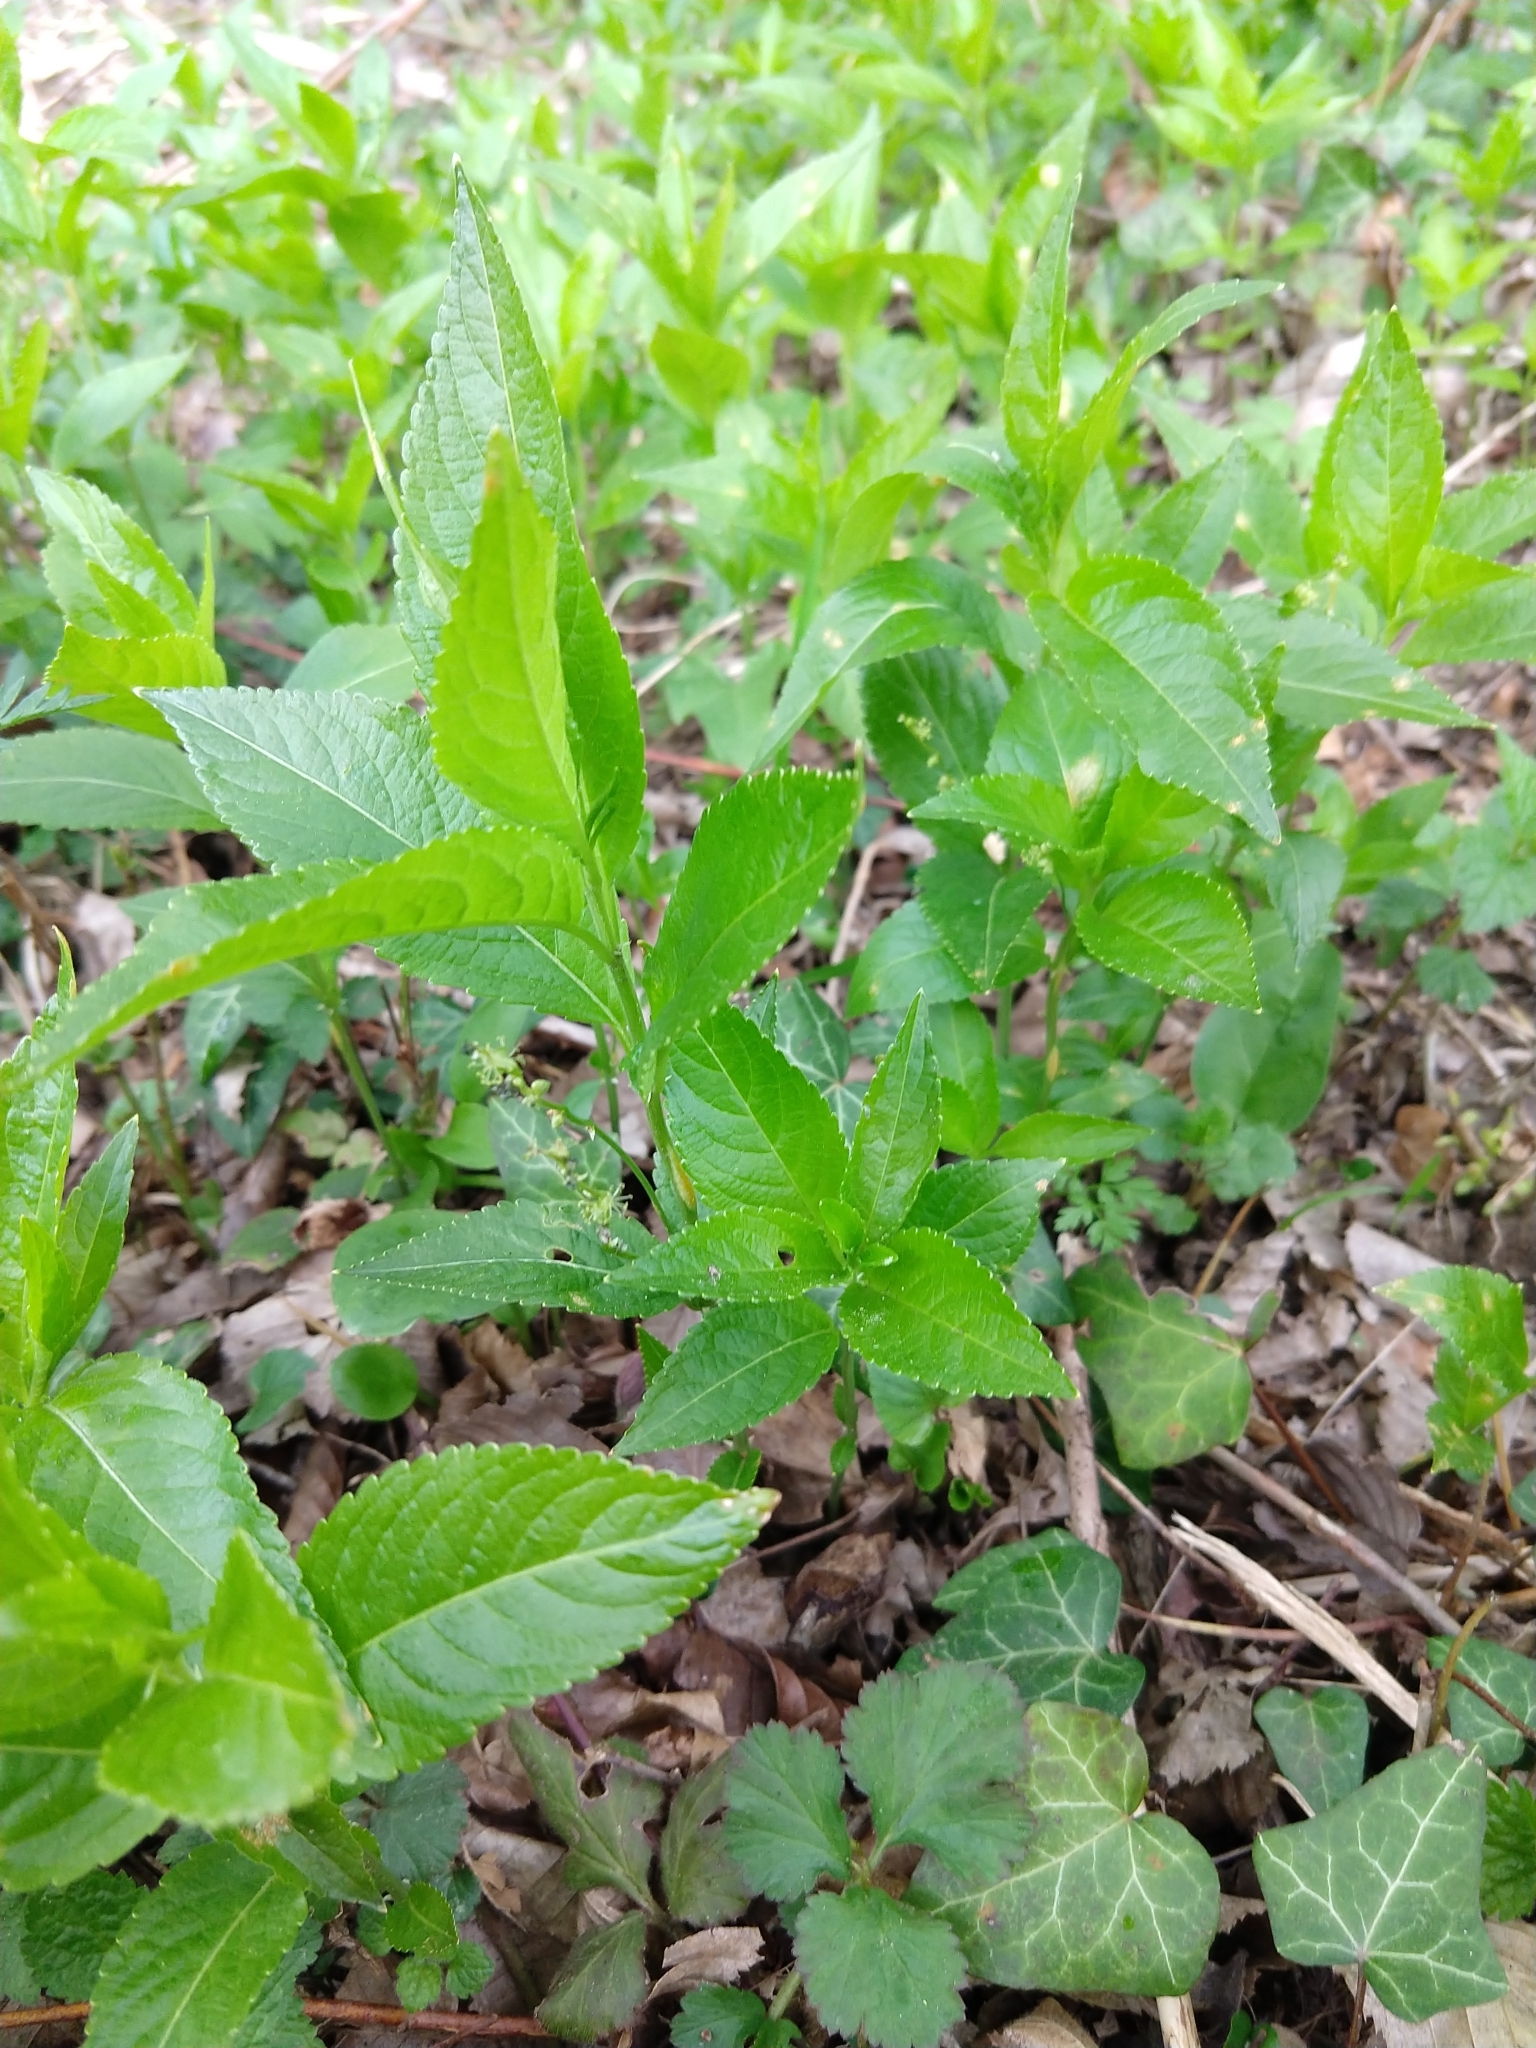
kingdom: Plantae
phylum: Tracheophyta
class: Magnoliopsida
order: Malpighiales
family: Euphorbiaceae
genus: Mercurialis
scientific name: Mercurialis perennis
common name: Dog mercury
